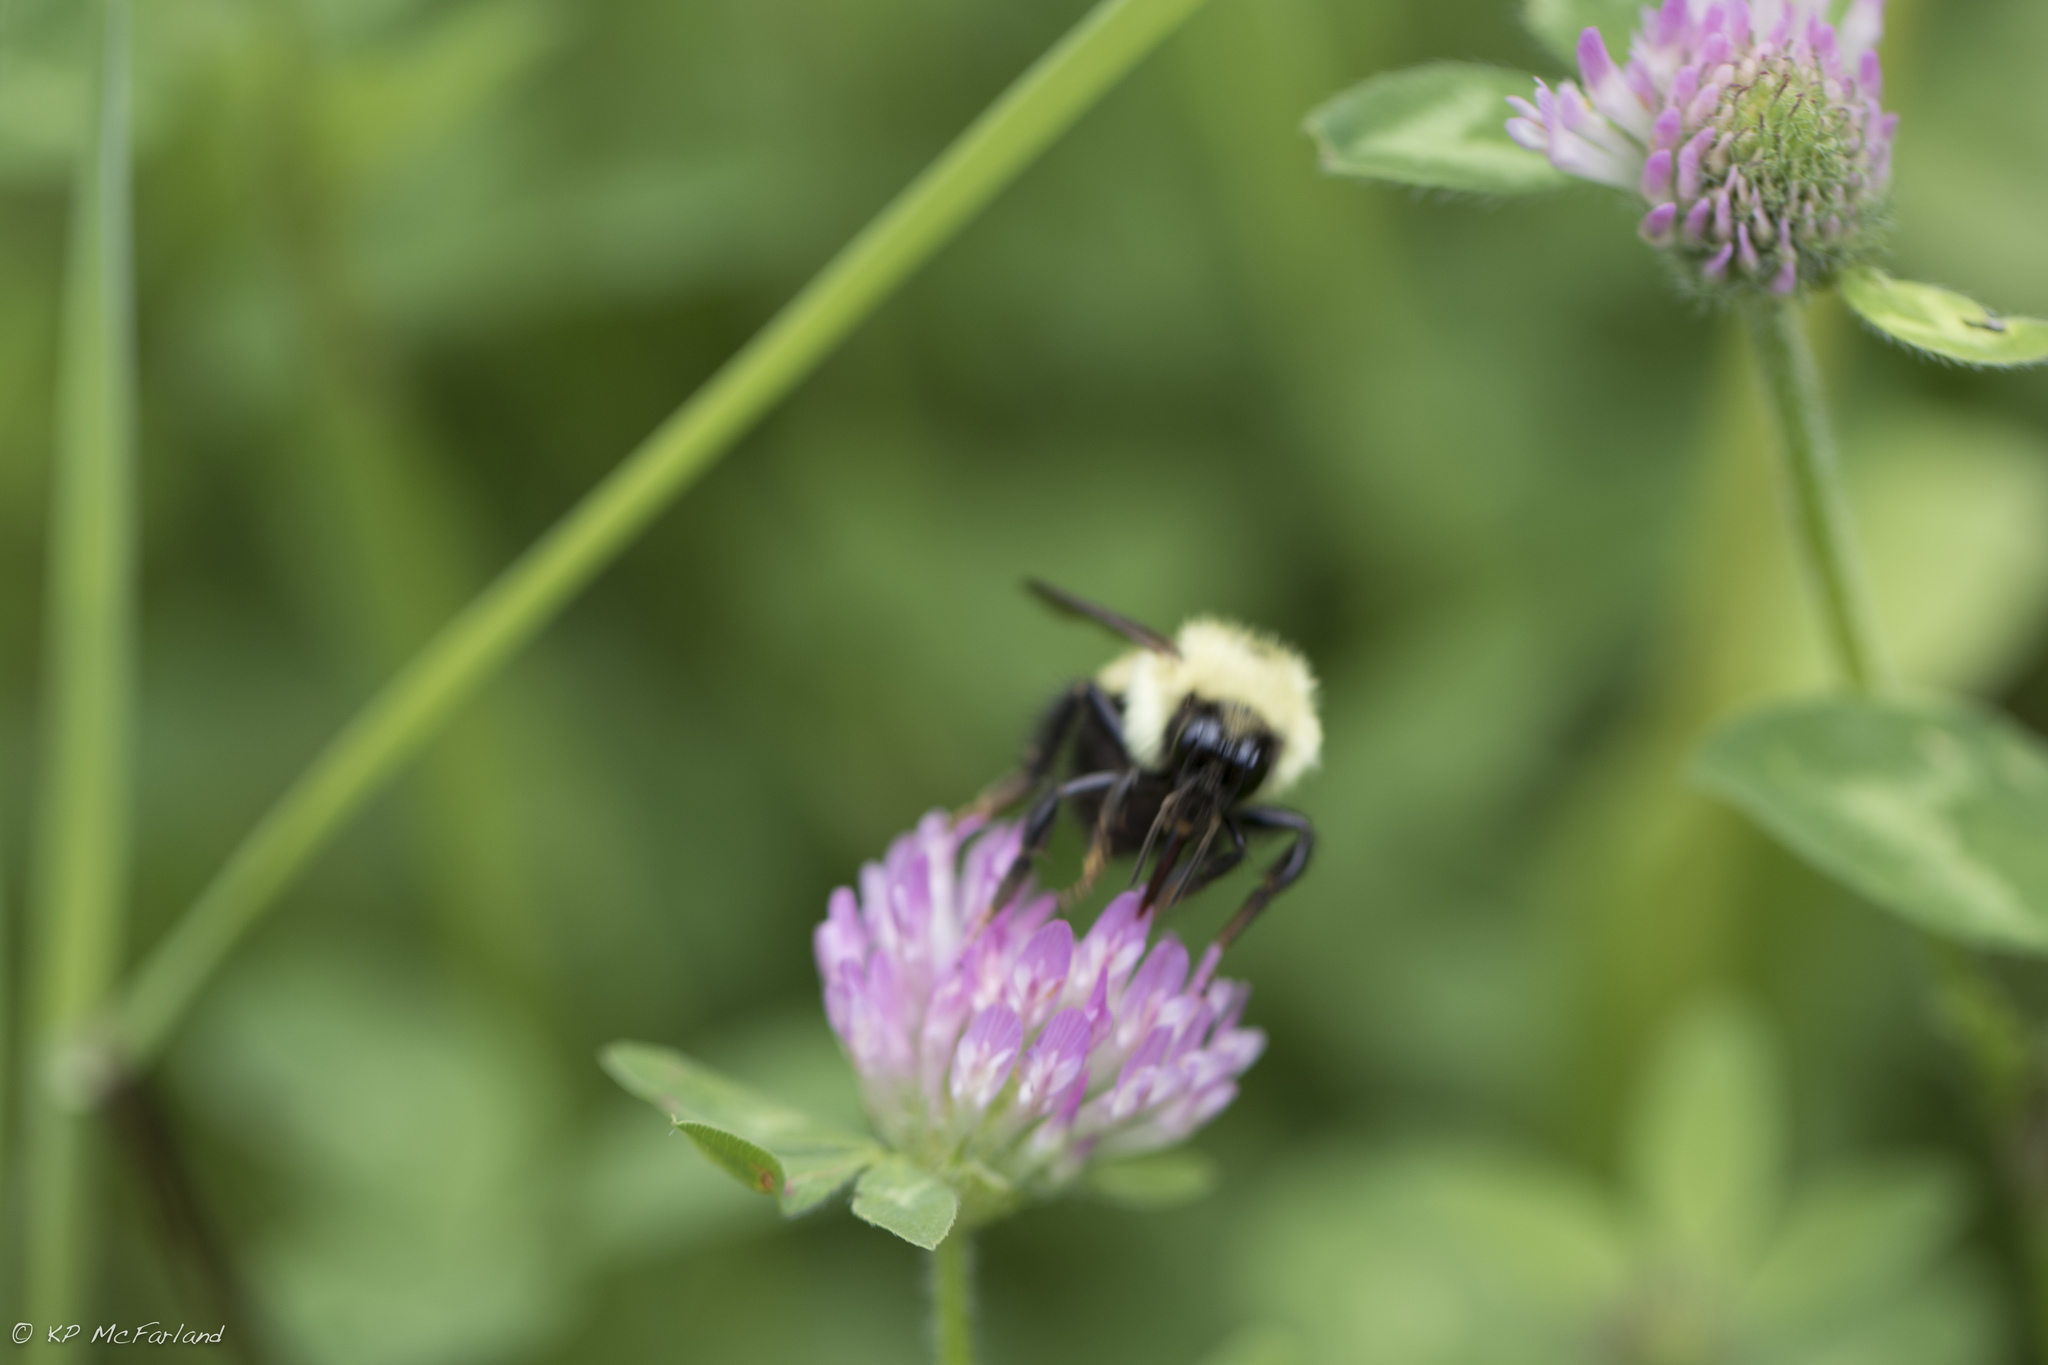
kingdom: Animalia
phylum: Arthropoda
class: Insecta
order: Hymenoptera
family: Apidae
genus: Pyrobombus
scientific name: Pyrobombus
